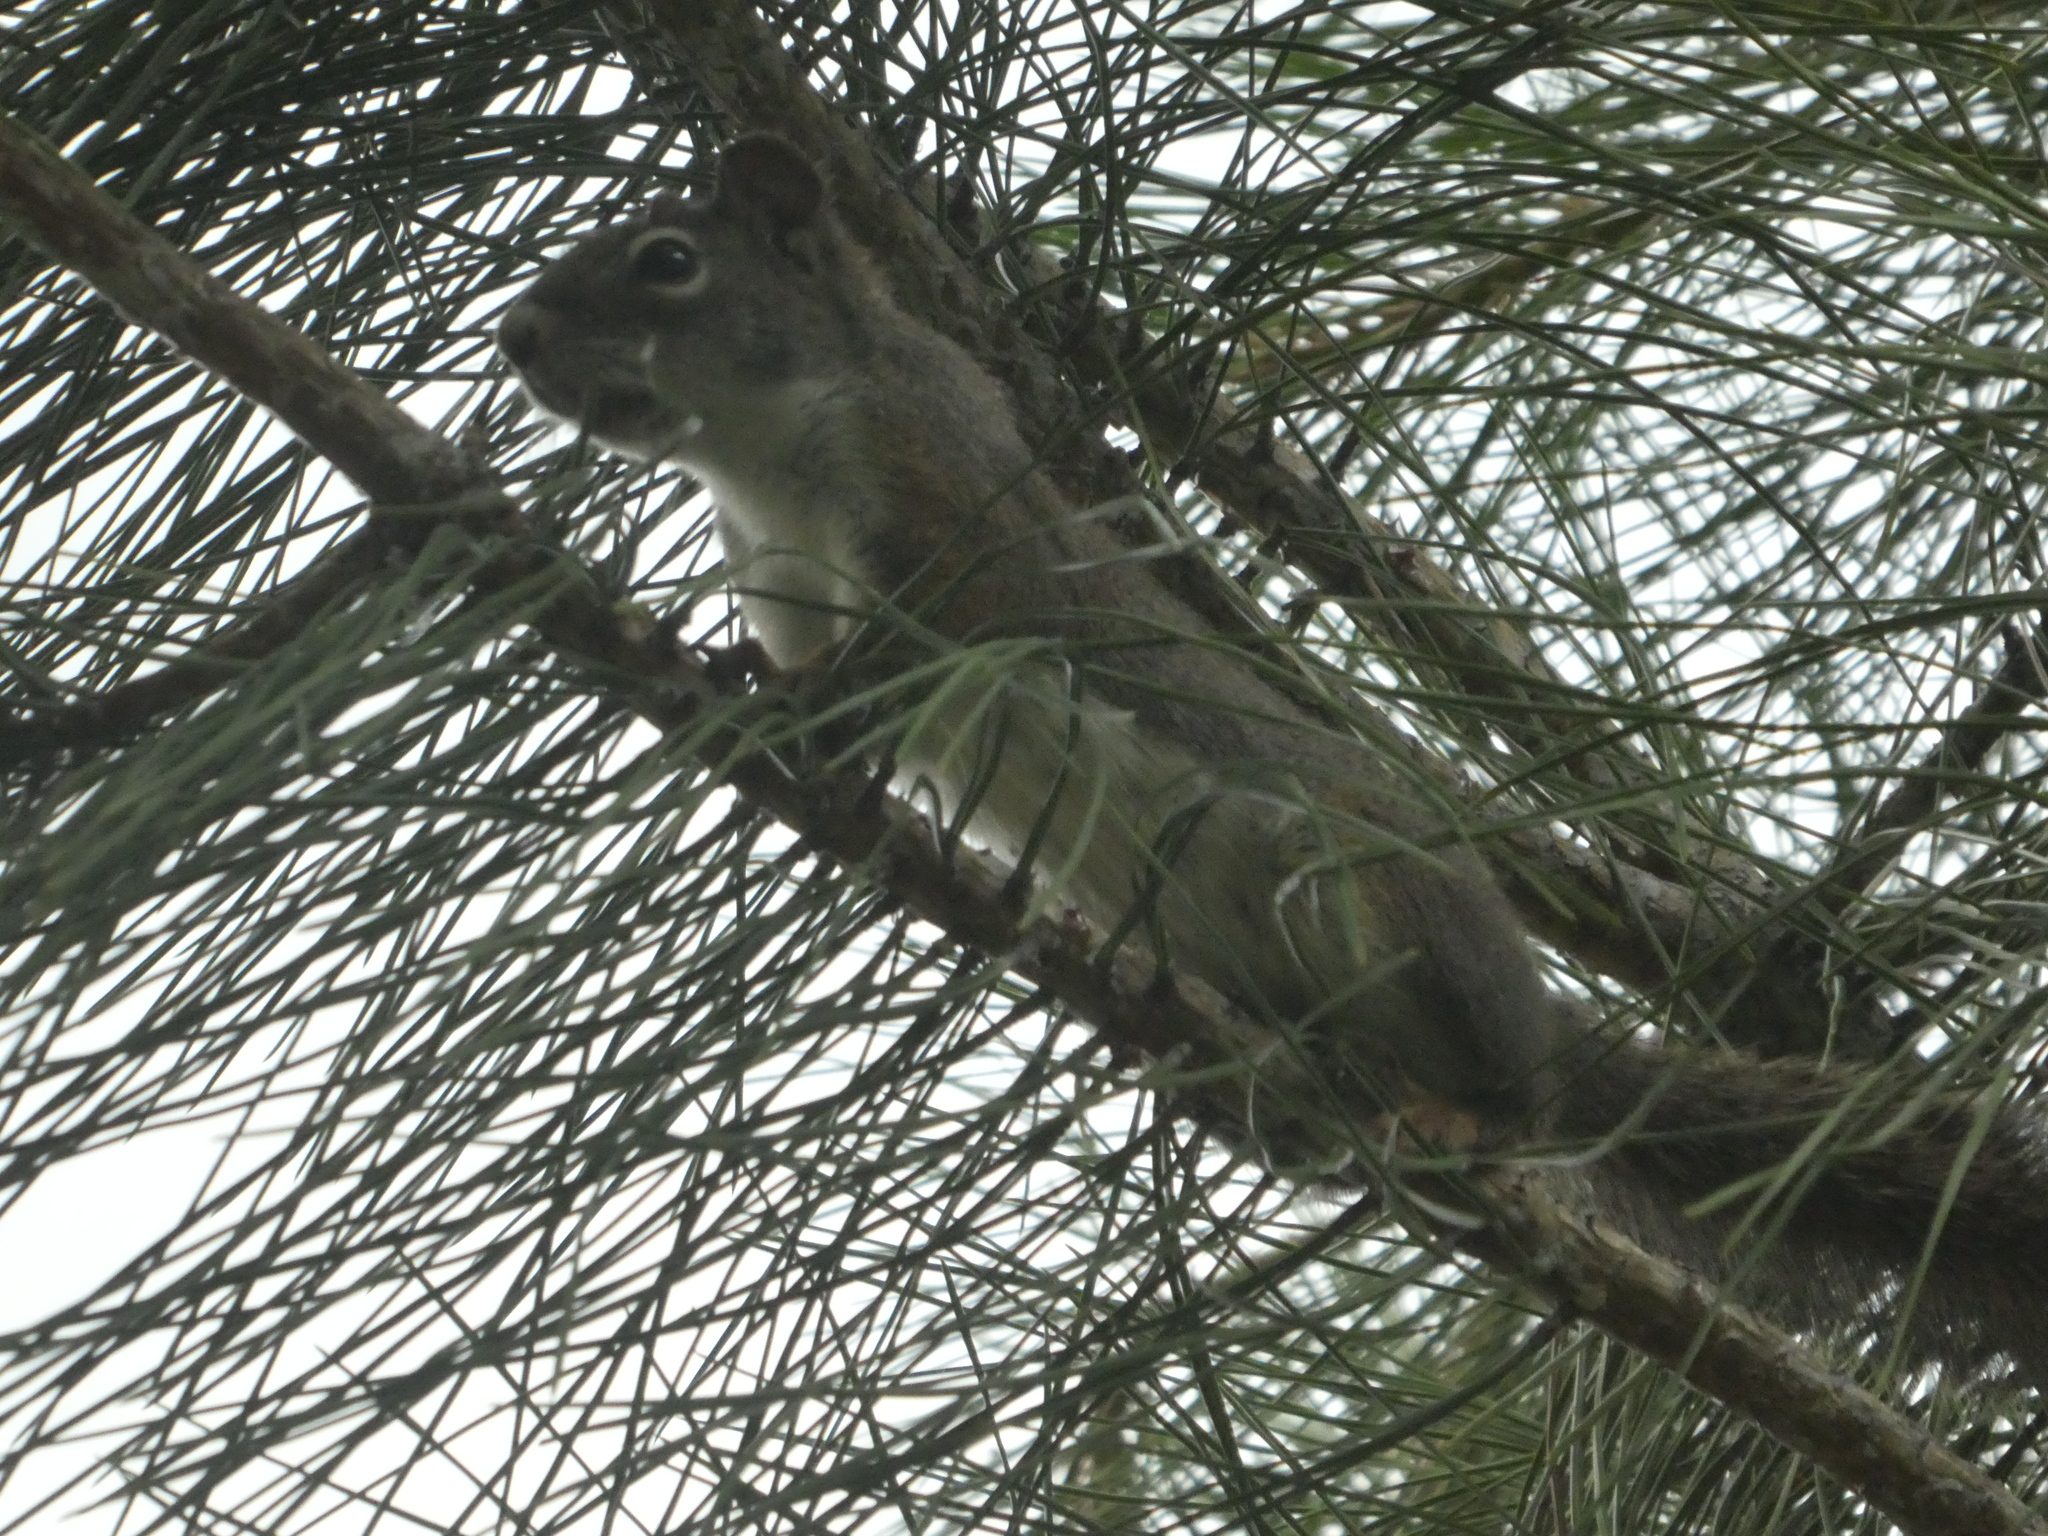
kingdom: Animalia
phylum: Chordata
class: Mammalia
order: Rodentia
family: Sciuridae
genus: Tamiasciurus
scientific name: Tamiasciurus hudsonicus
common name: Red squirrel
